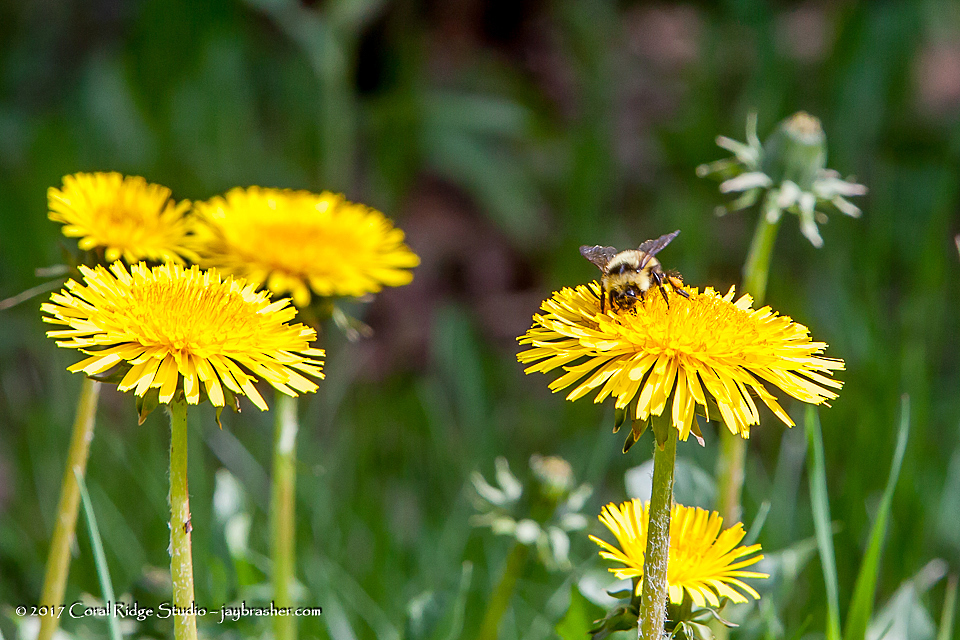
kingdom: Animalia
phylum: Arthropoda
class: Insecta
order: Hymenoptera
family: Apidae
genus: Bombus
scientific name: Bombus rufocinctus
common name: Red-belted bumble bee
